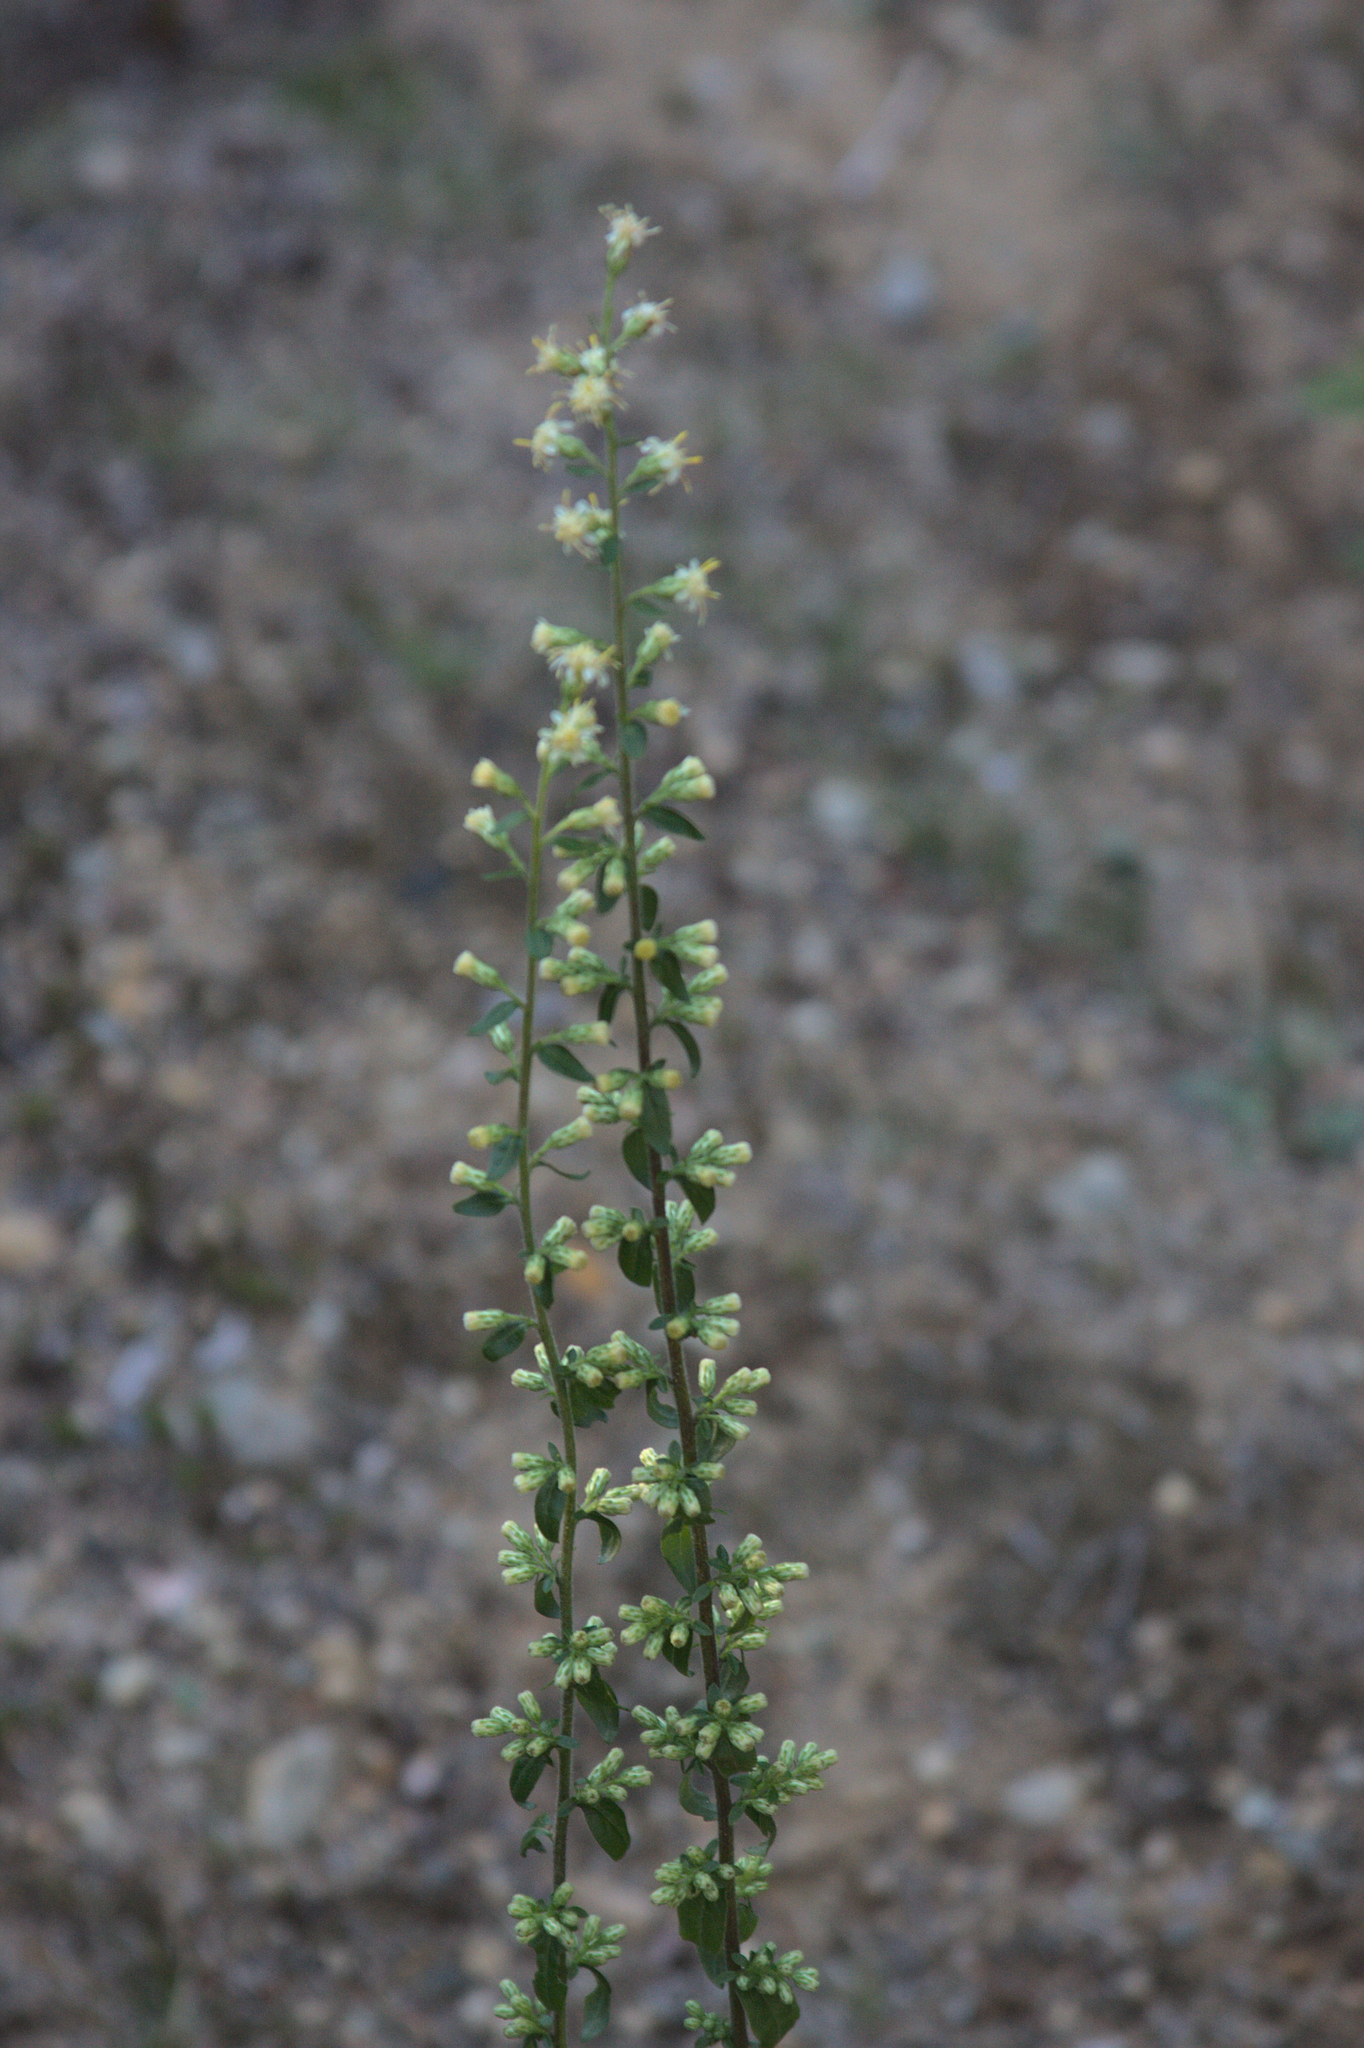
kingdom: Plantae
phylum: Tracheophyta
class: Magnoliopsida
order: Asterales
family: Asteraceae
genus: Solidago
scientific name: Solidago bicolor
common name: Silverrod
